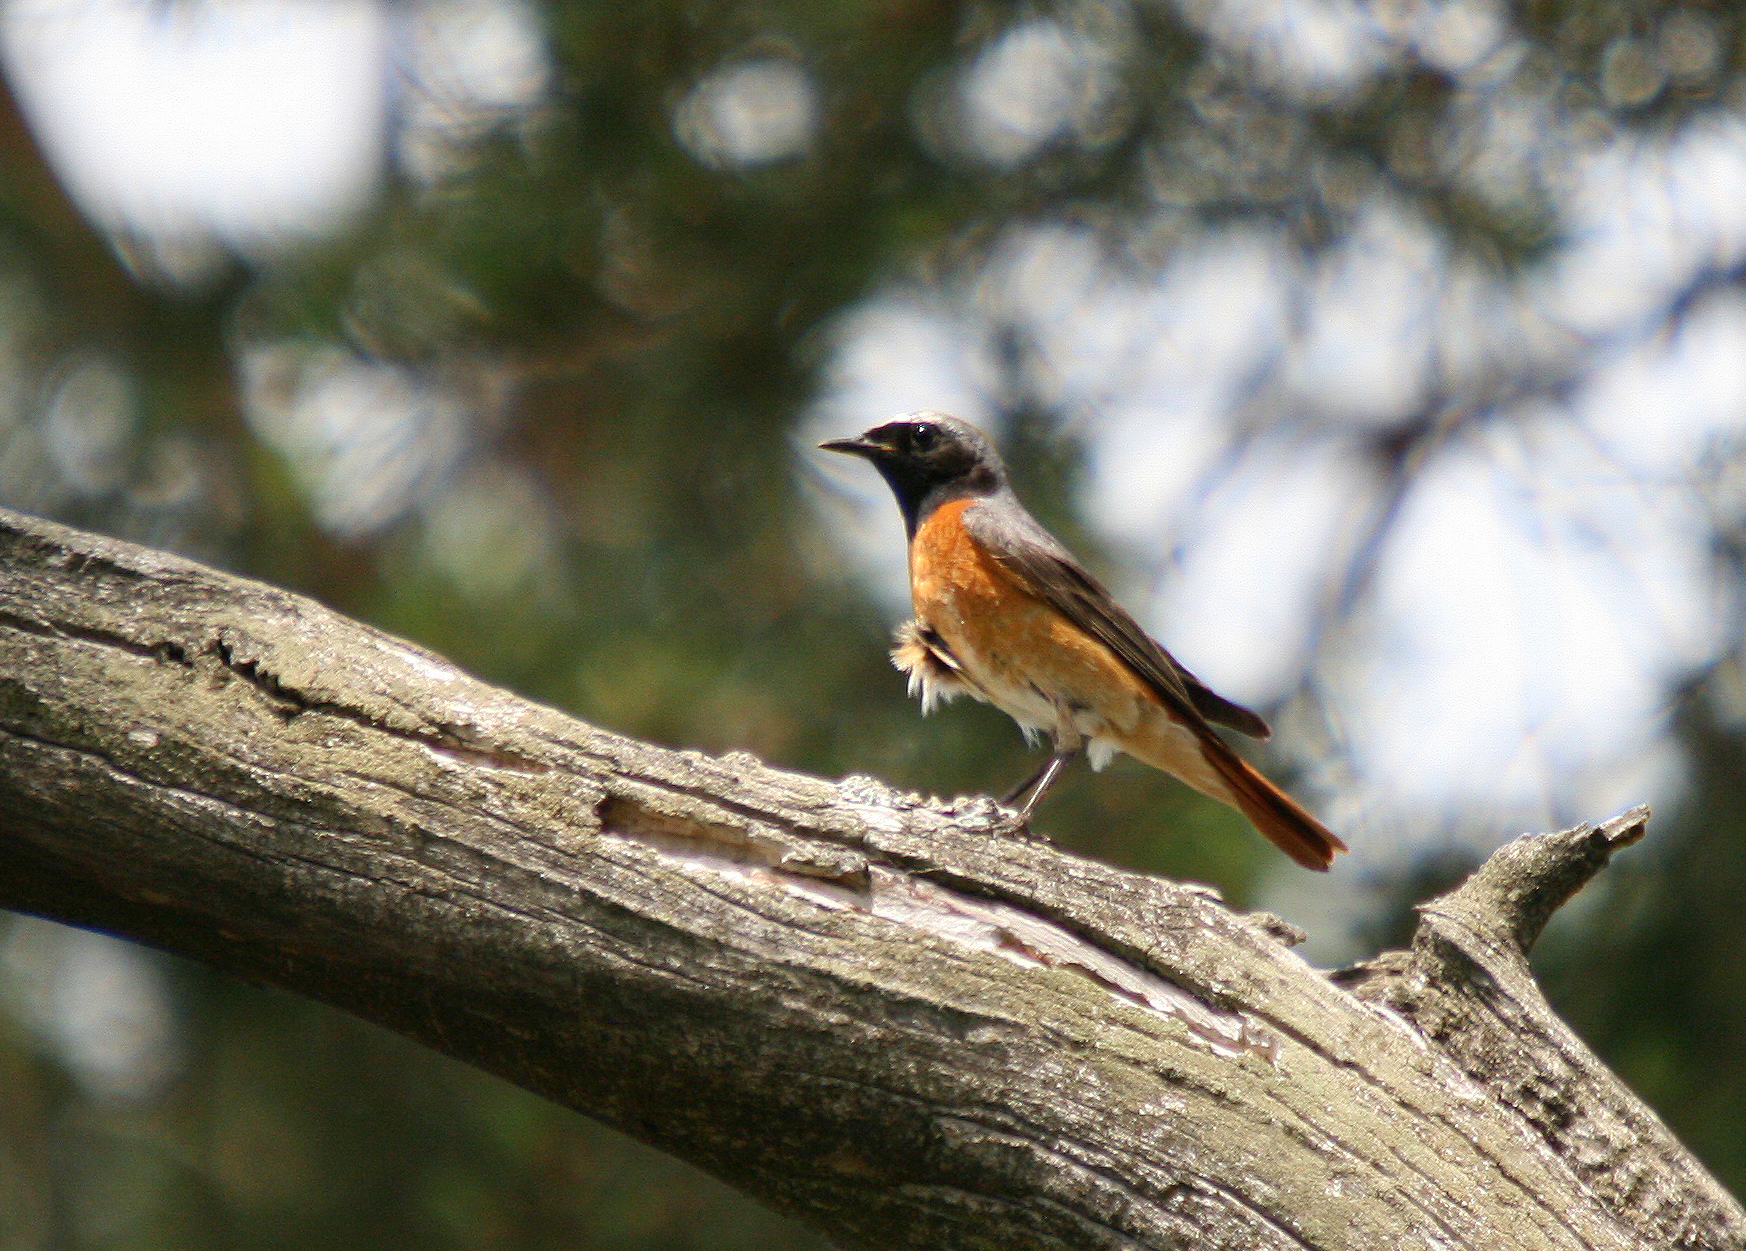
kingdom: Animalia
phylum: Chordata
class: Aves
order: Passeriformes
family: Muscicapidae
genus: Phoenicurus
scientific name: Phoenicurus phoenicurus
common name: Common redstart
